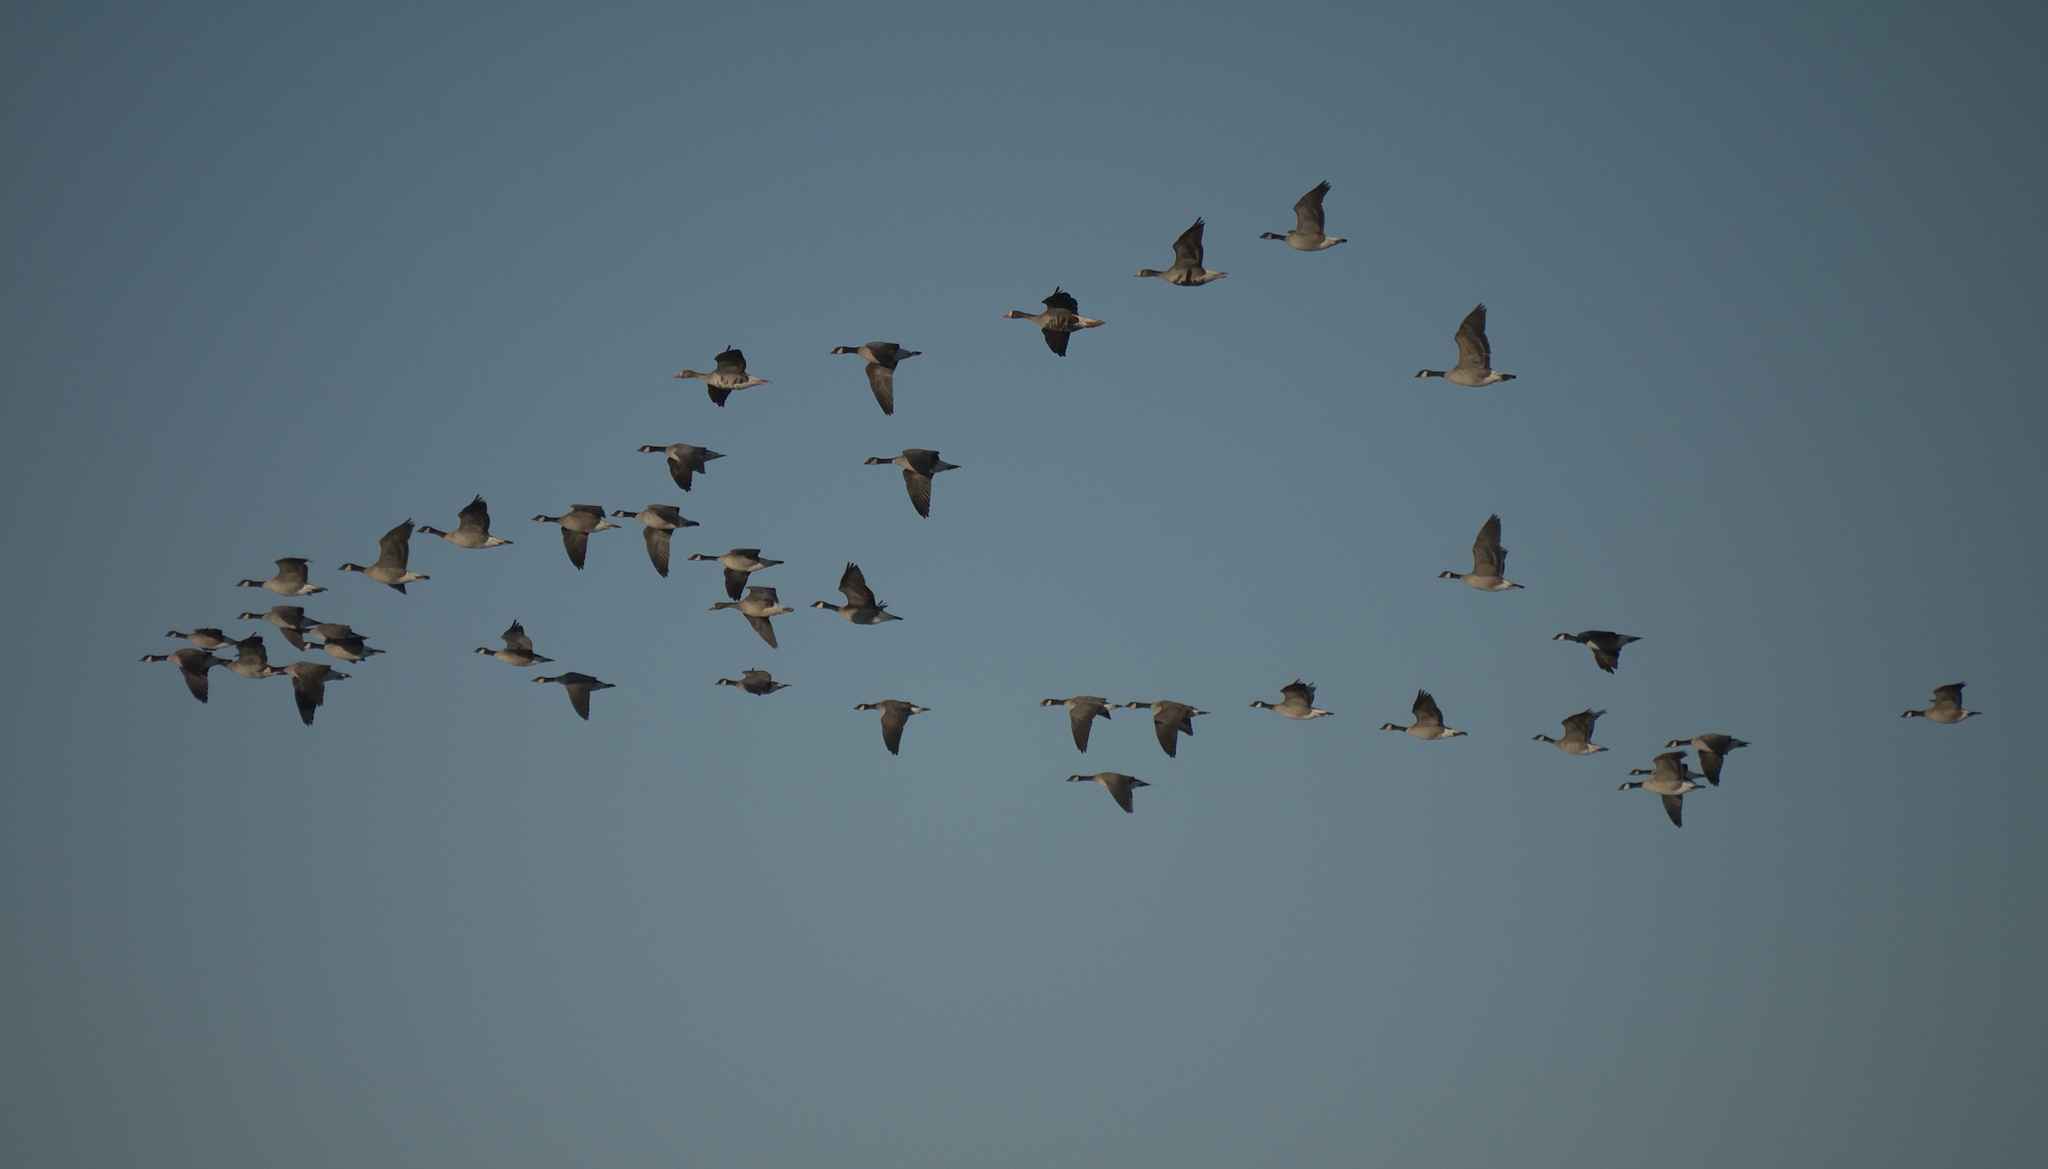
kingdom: Animalia
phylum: Chordata
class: Aves
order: Anseriformes
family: Anatidae
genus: Branta
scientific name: Branta canadensis
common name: Canada goose
